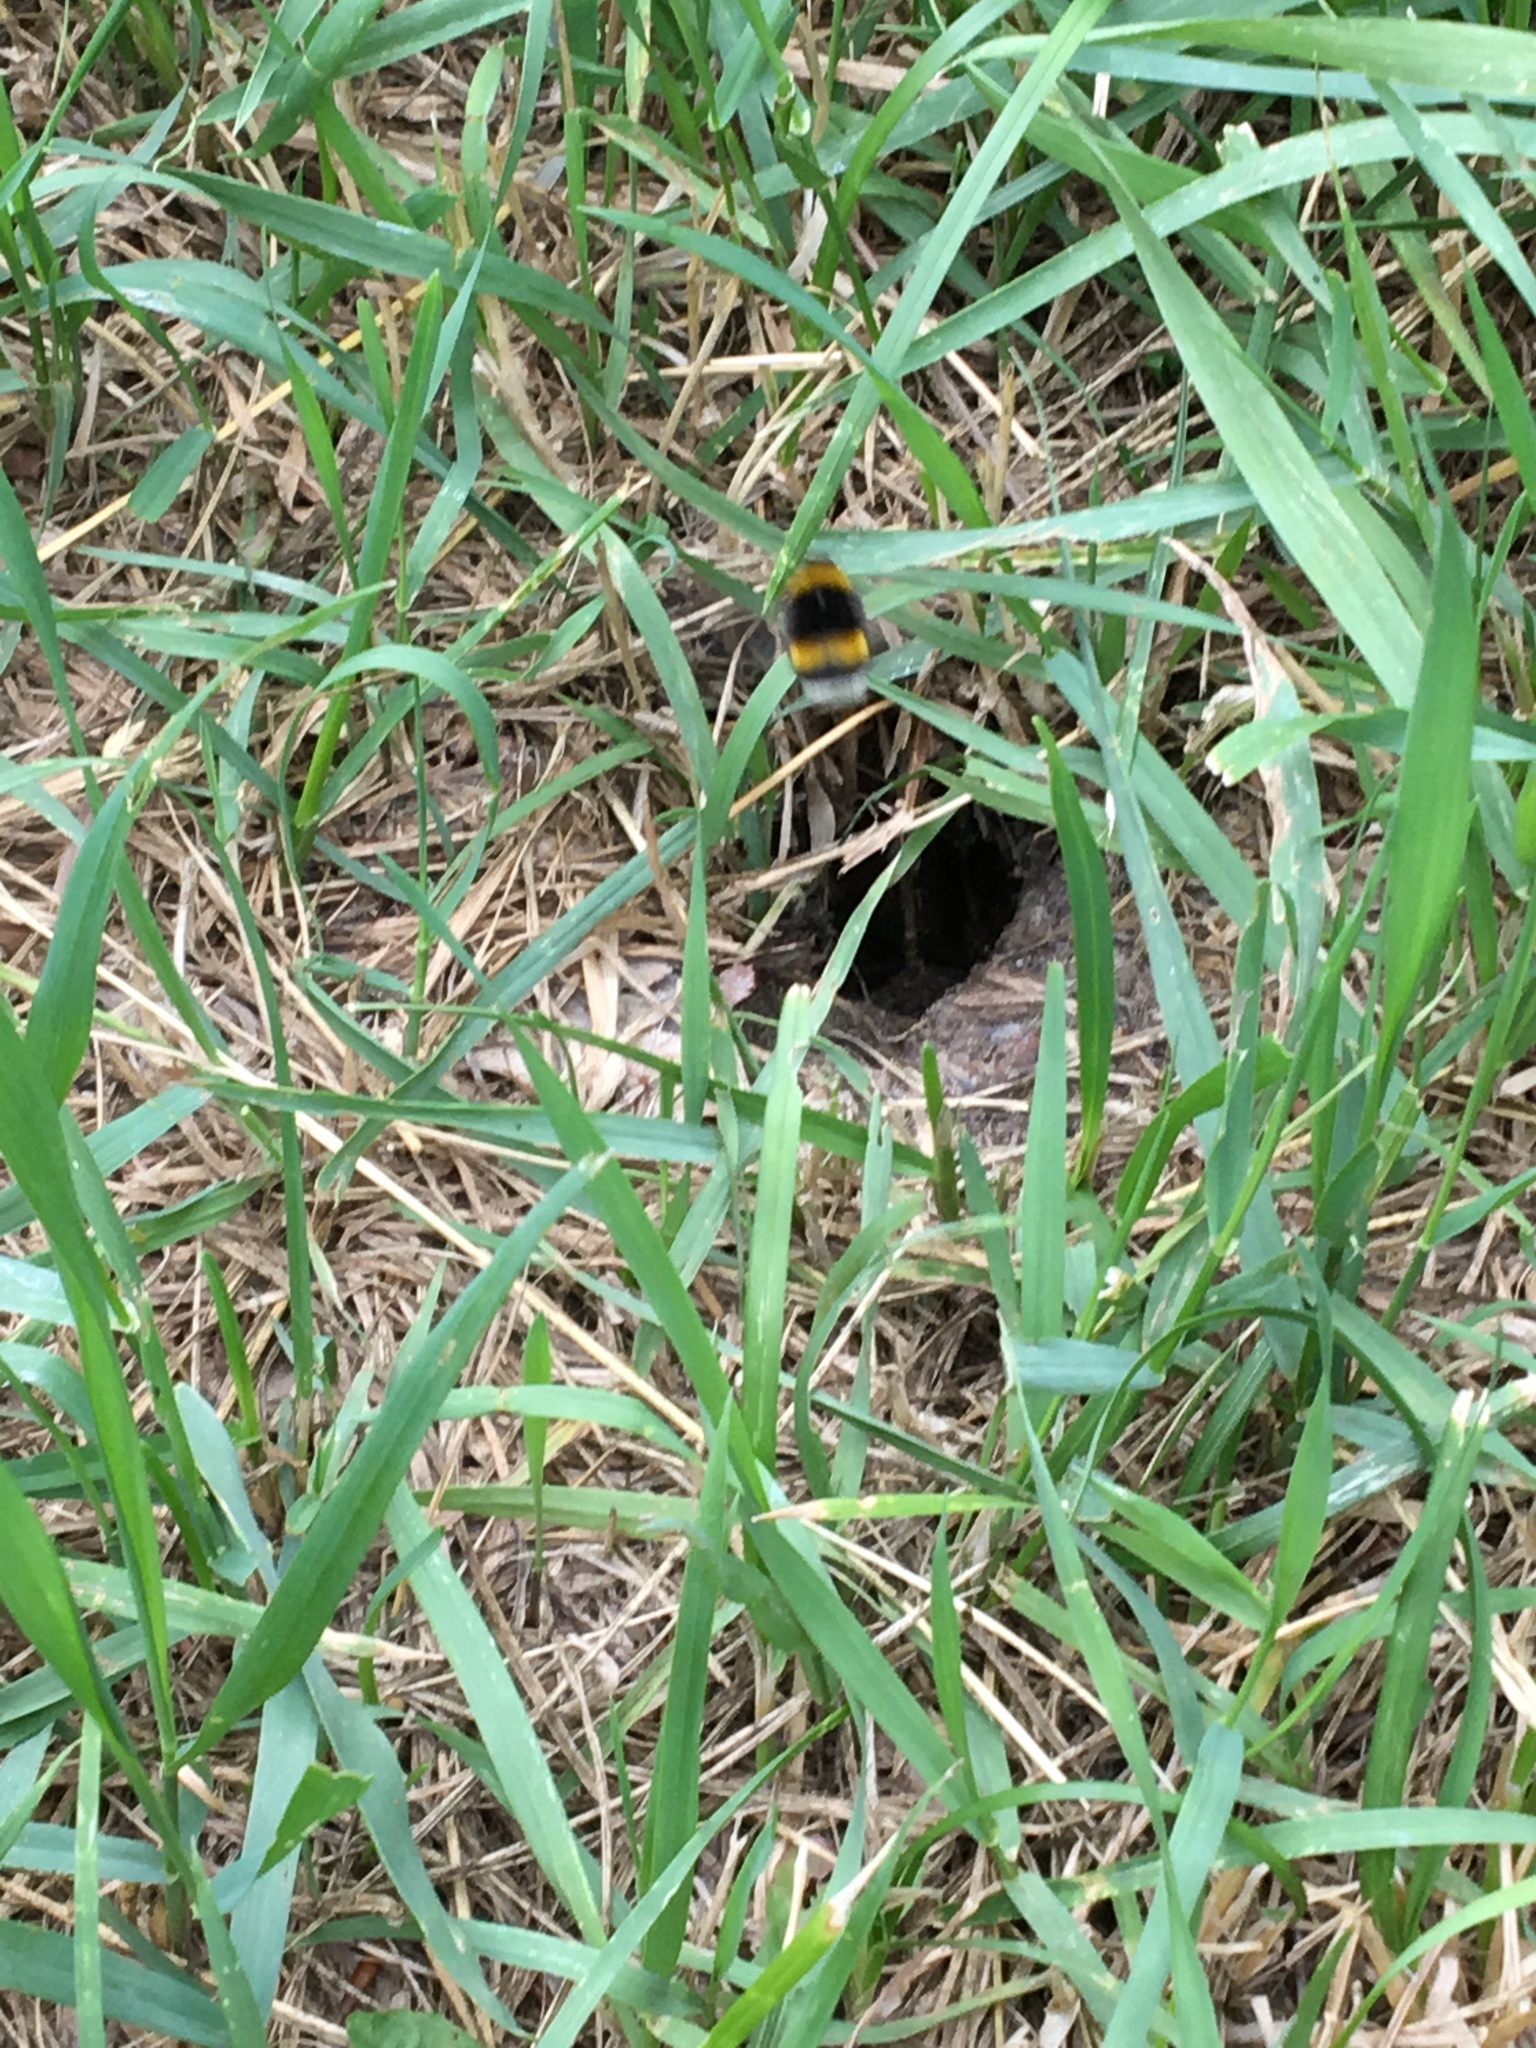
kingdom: Animalia
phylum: Arthropoda
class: Insecta
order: Hymenoptera
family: Apidae
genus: Bombus
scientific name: Bombus terrestris
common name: Buff-tailed bumblebee
